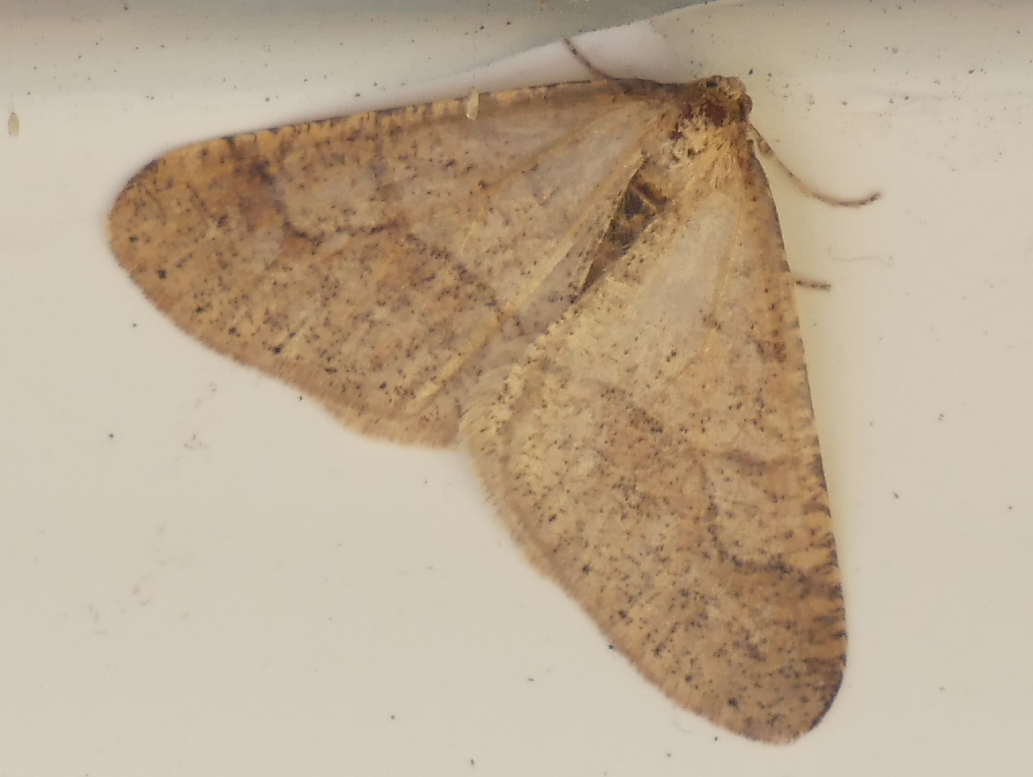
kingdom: Animalia
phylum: Arthropoda
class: Insecta
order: Lepidoptera
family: Geometridae
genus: Agriopis
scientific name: Agriopis marginaria
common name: Dotted border
